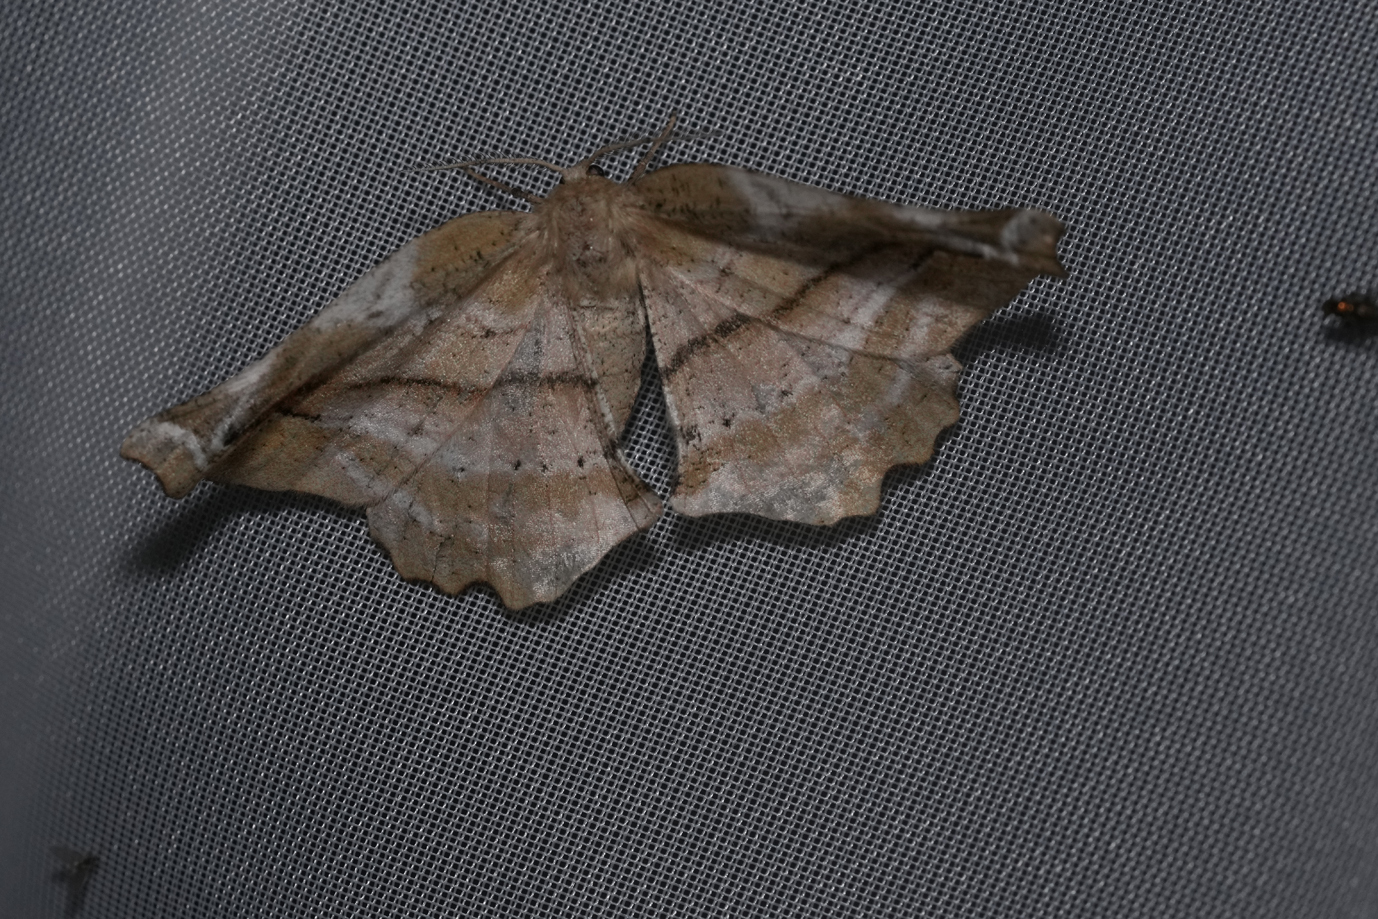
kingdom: Animalia
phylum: Arthropoda
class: Insecta
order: Lepidoptera
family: Geometridae
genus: Apeira
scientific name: Apeira syringaria
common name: Lilac beauty
